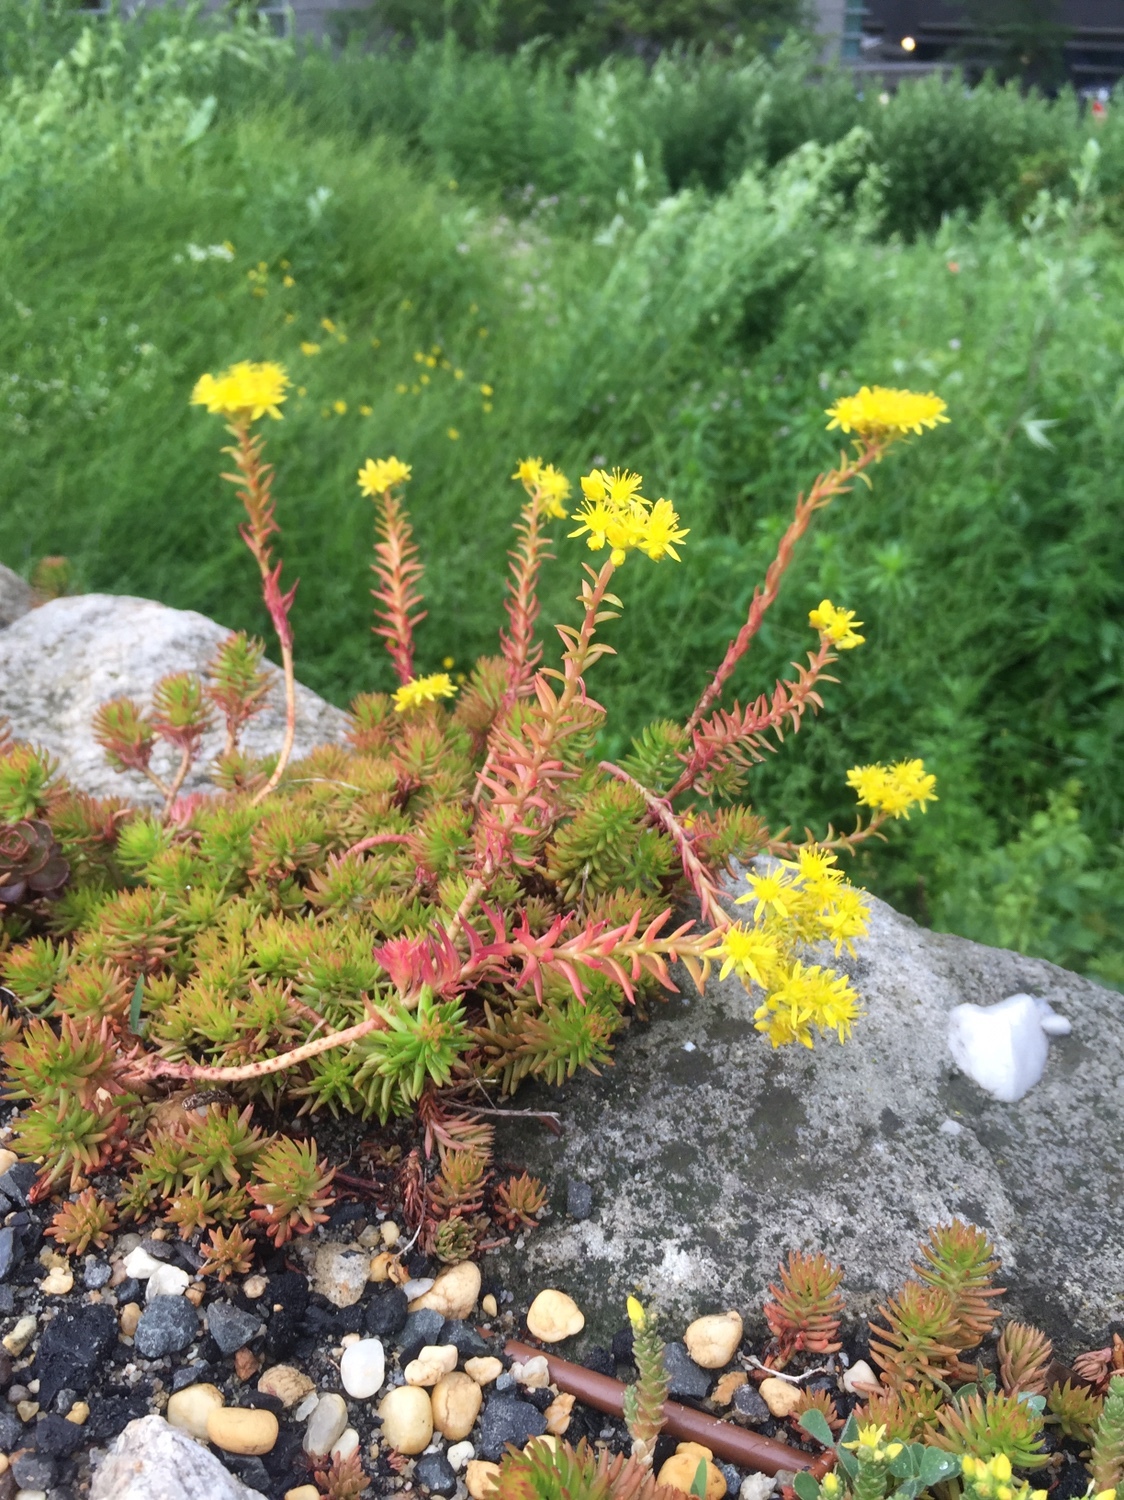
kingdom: Plantae
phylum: Tracheophyta
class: Magnoliopsida
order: Saxifragales
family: Crassulaceae
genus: Petrosedum
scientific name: Petrosedum rupestre
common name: Jenny's stonecrop
